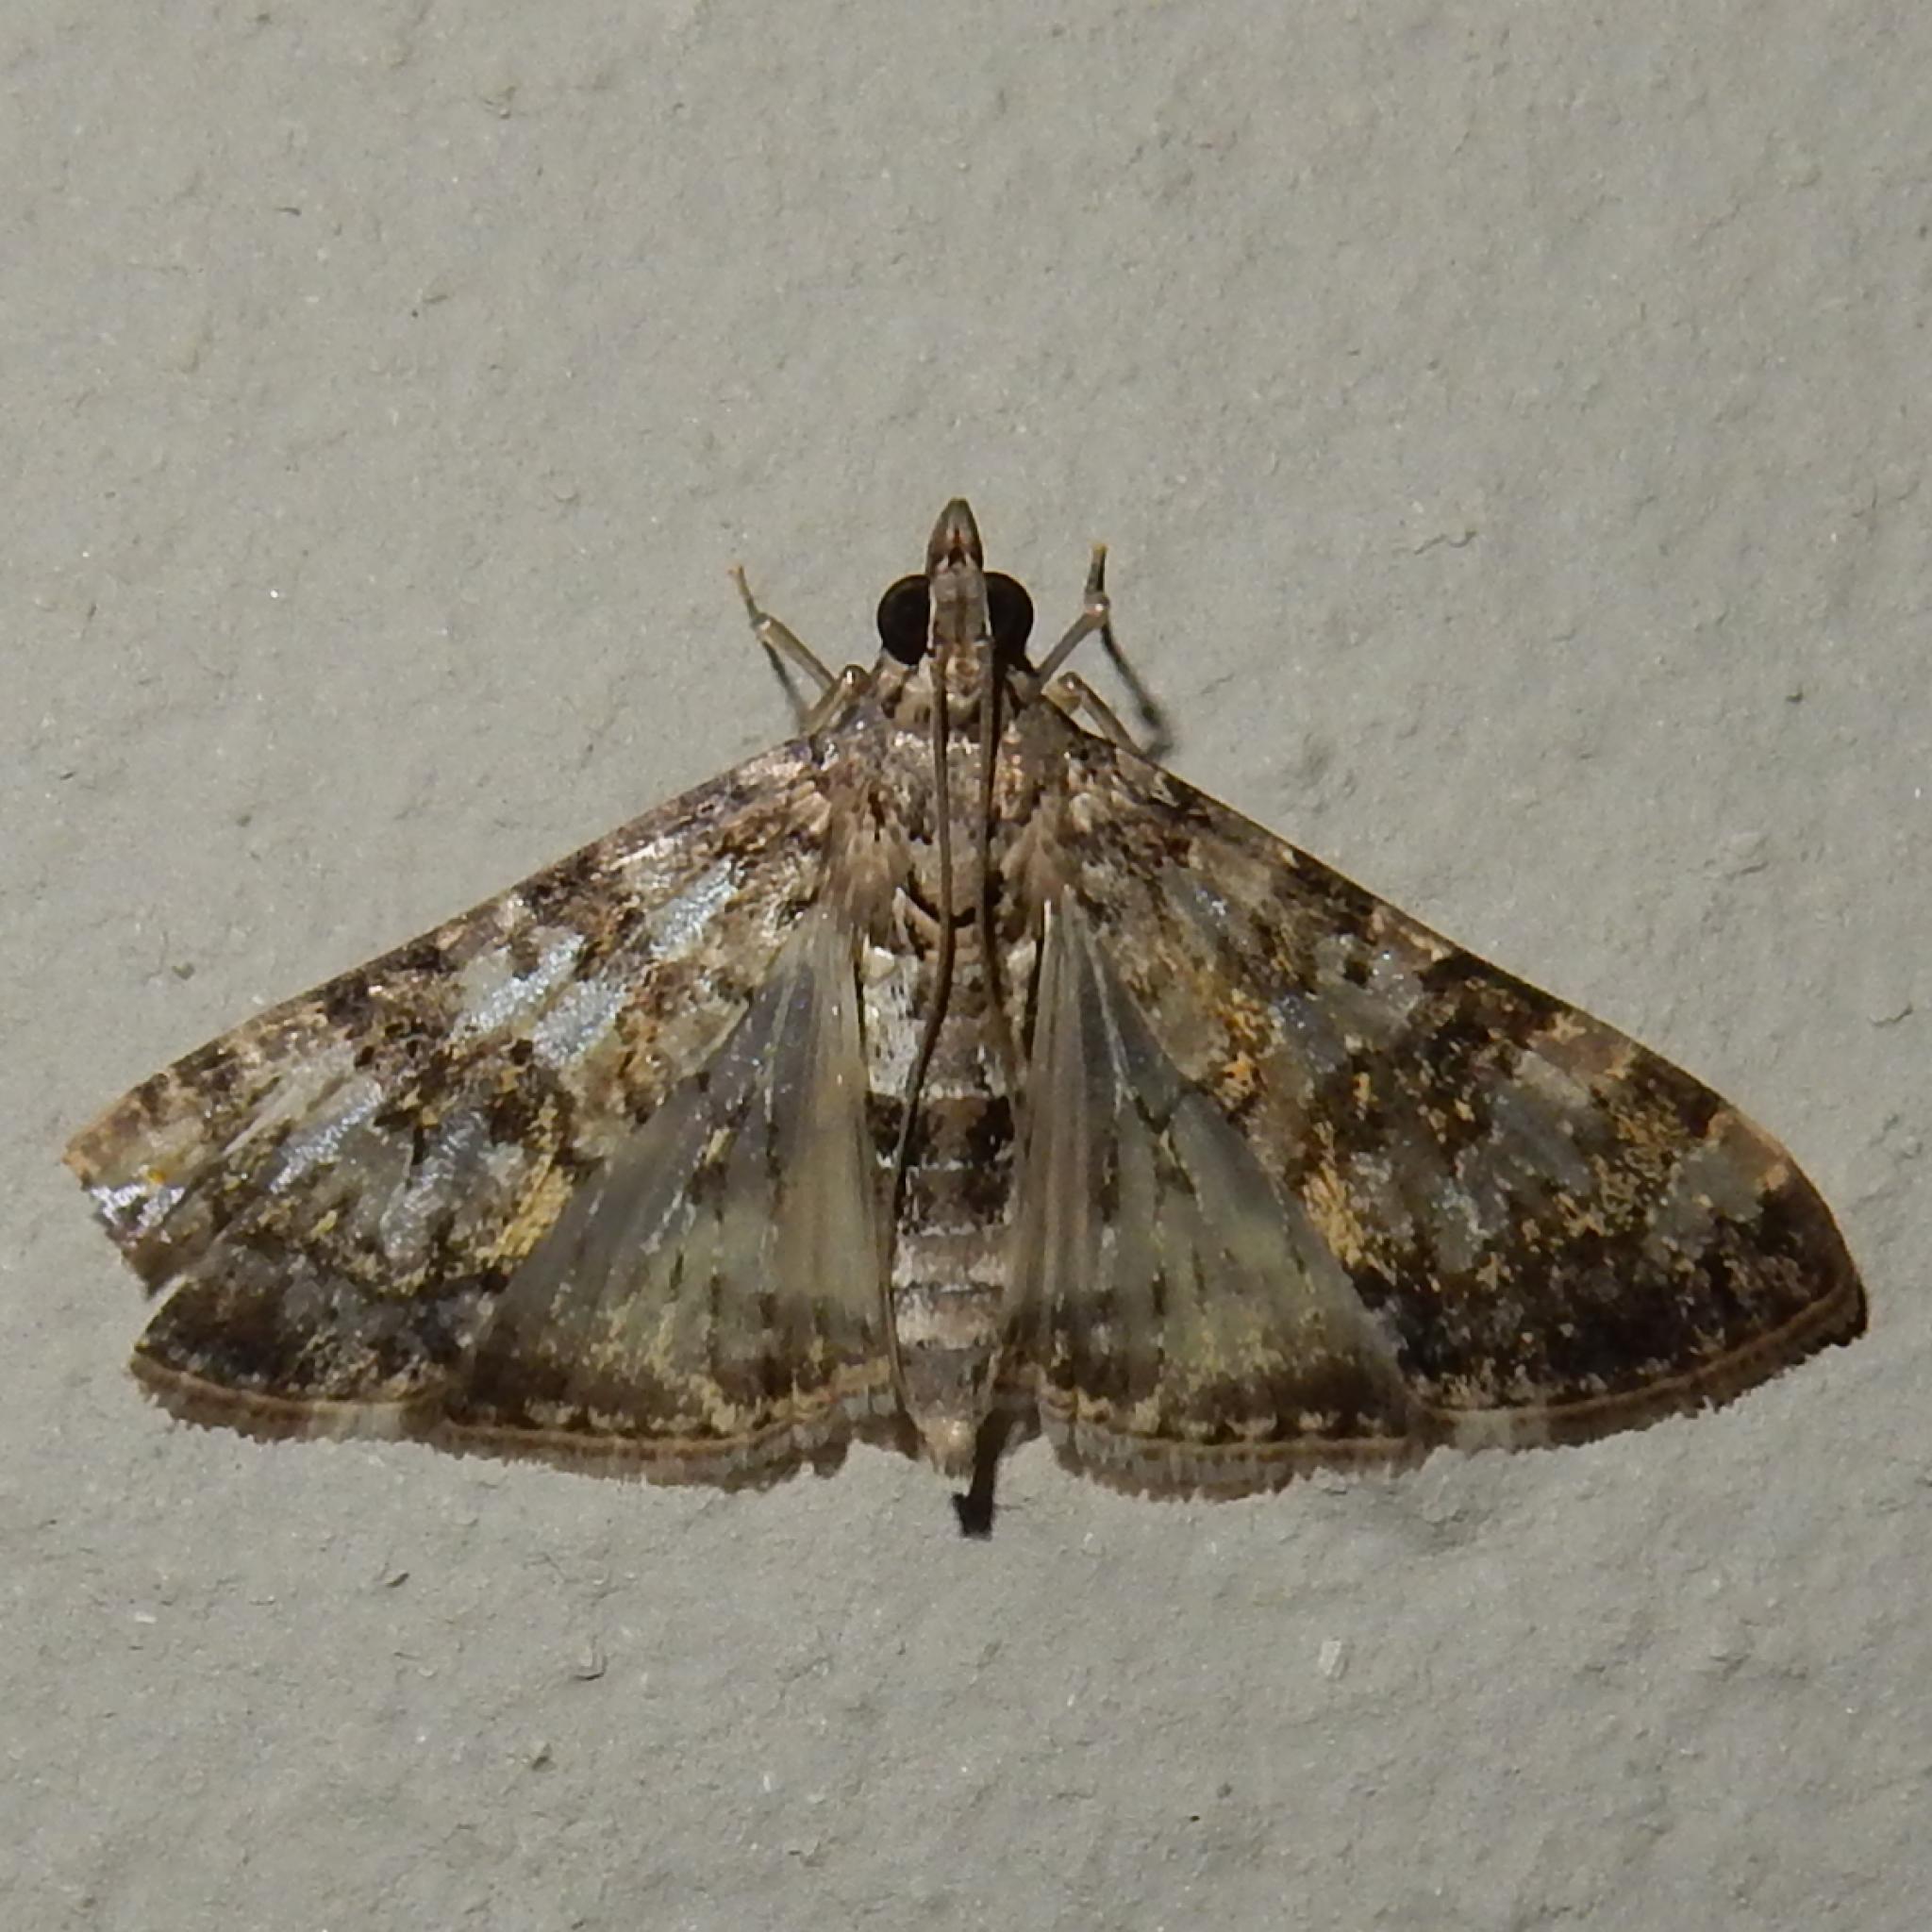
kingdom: Animalia
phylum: Arthropoda
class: Insecta
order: Lepidoptera
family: Crambidae
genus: Dysallacta
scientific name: Dysallacta negatalis
